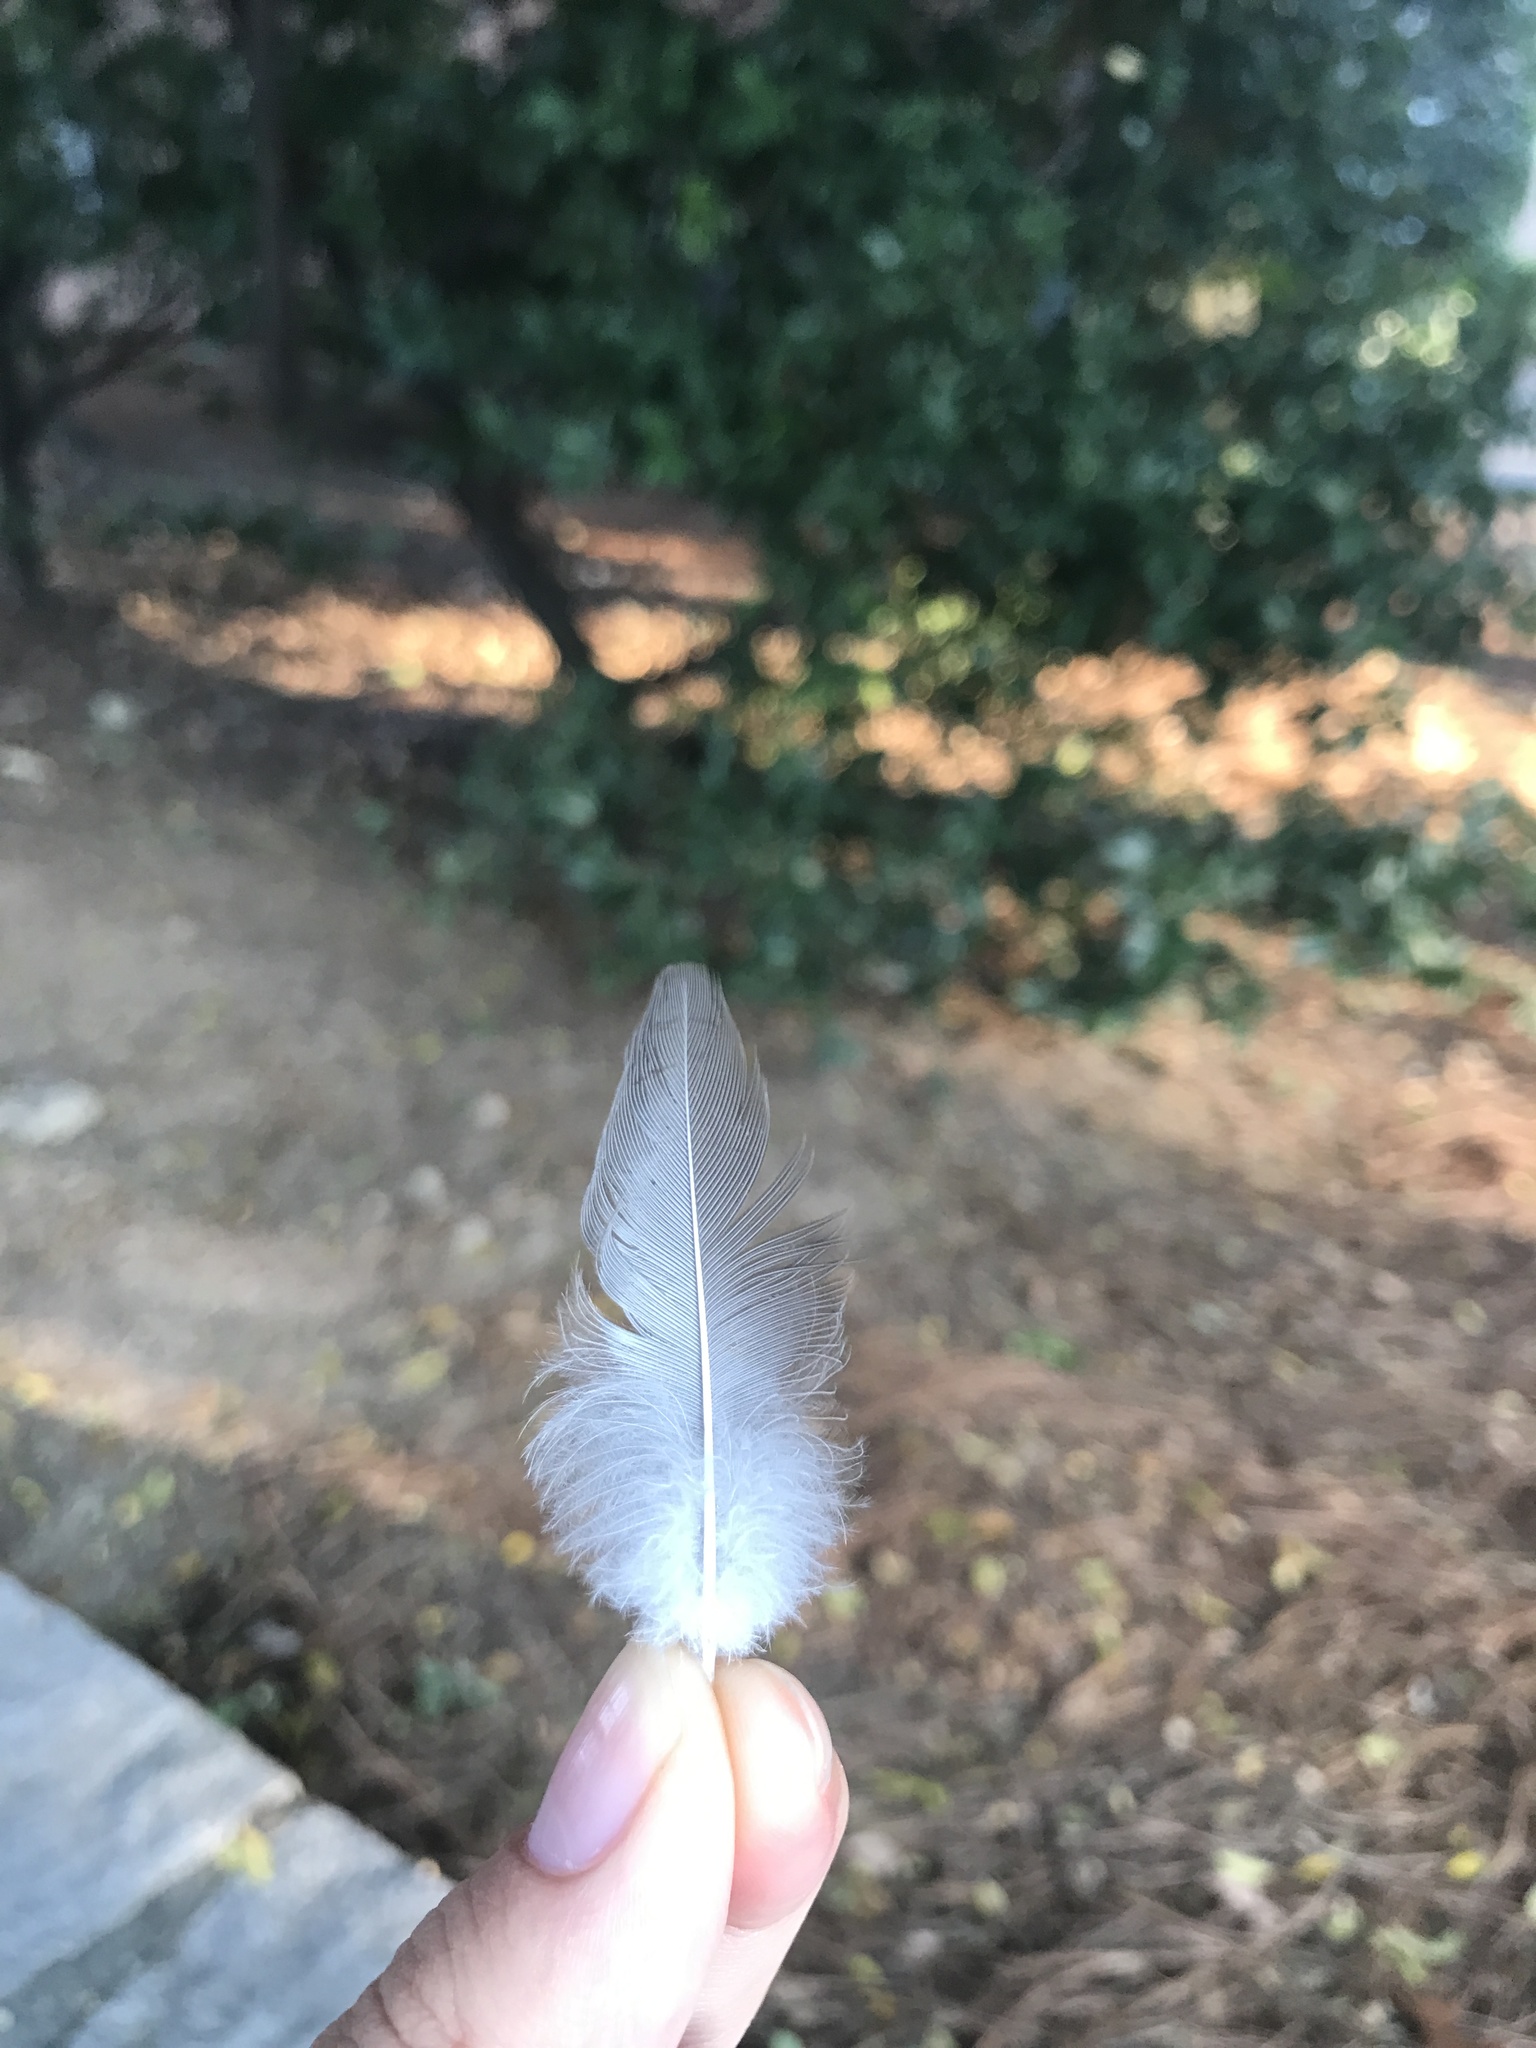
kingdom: Animalia
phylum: Chordata
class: Aves
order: Passeriformes
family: Turdidae
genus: Turdus
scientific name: Turdus migratorius
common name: American robin
